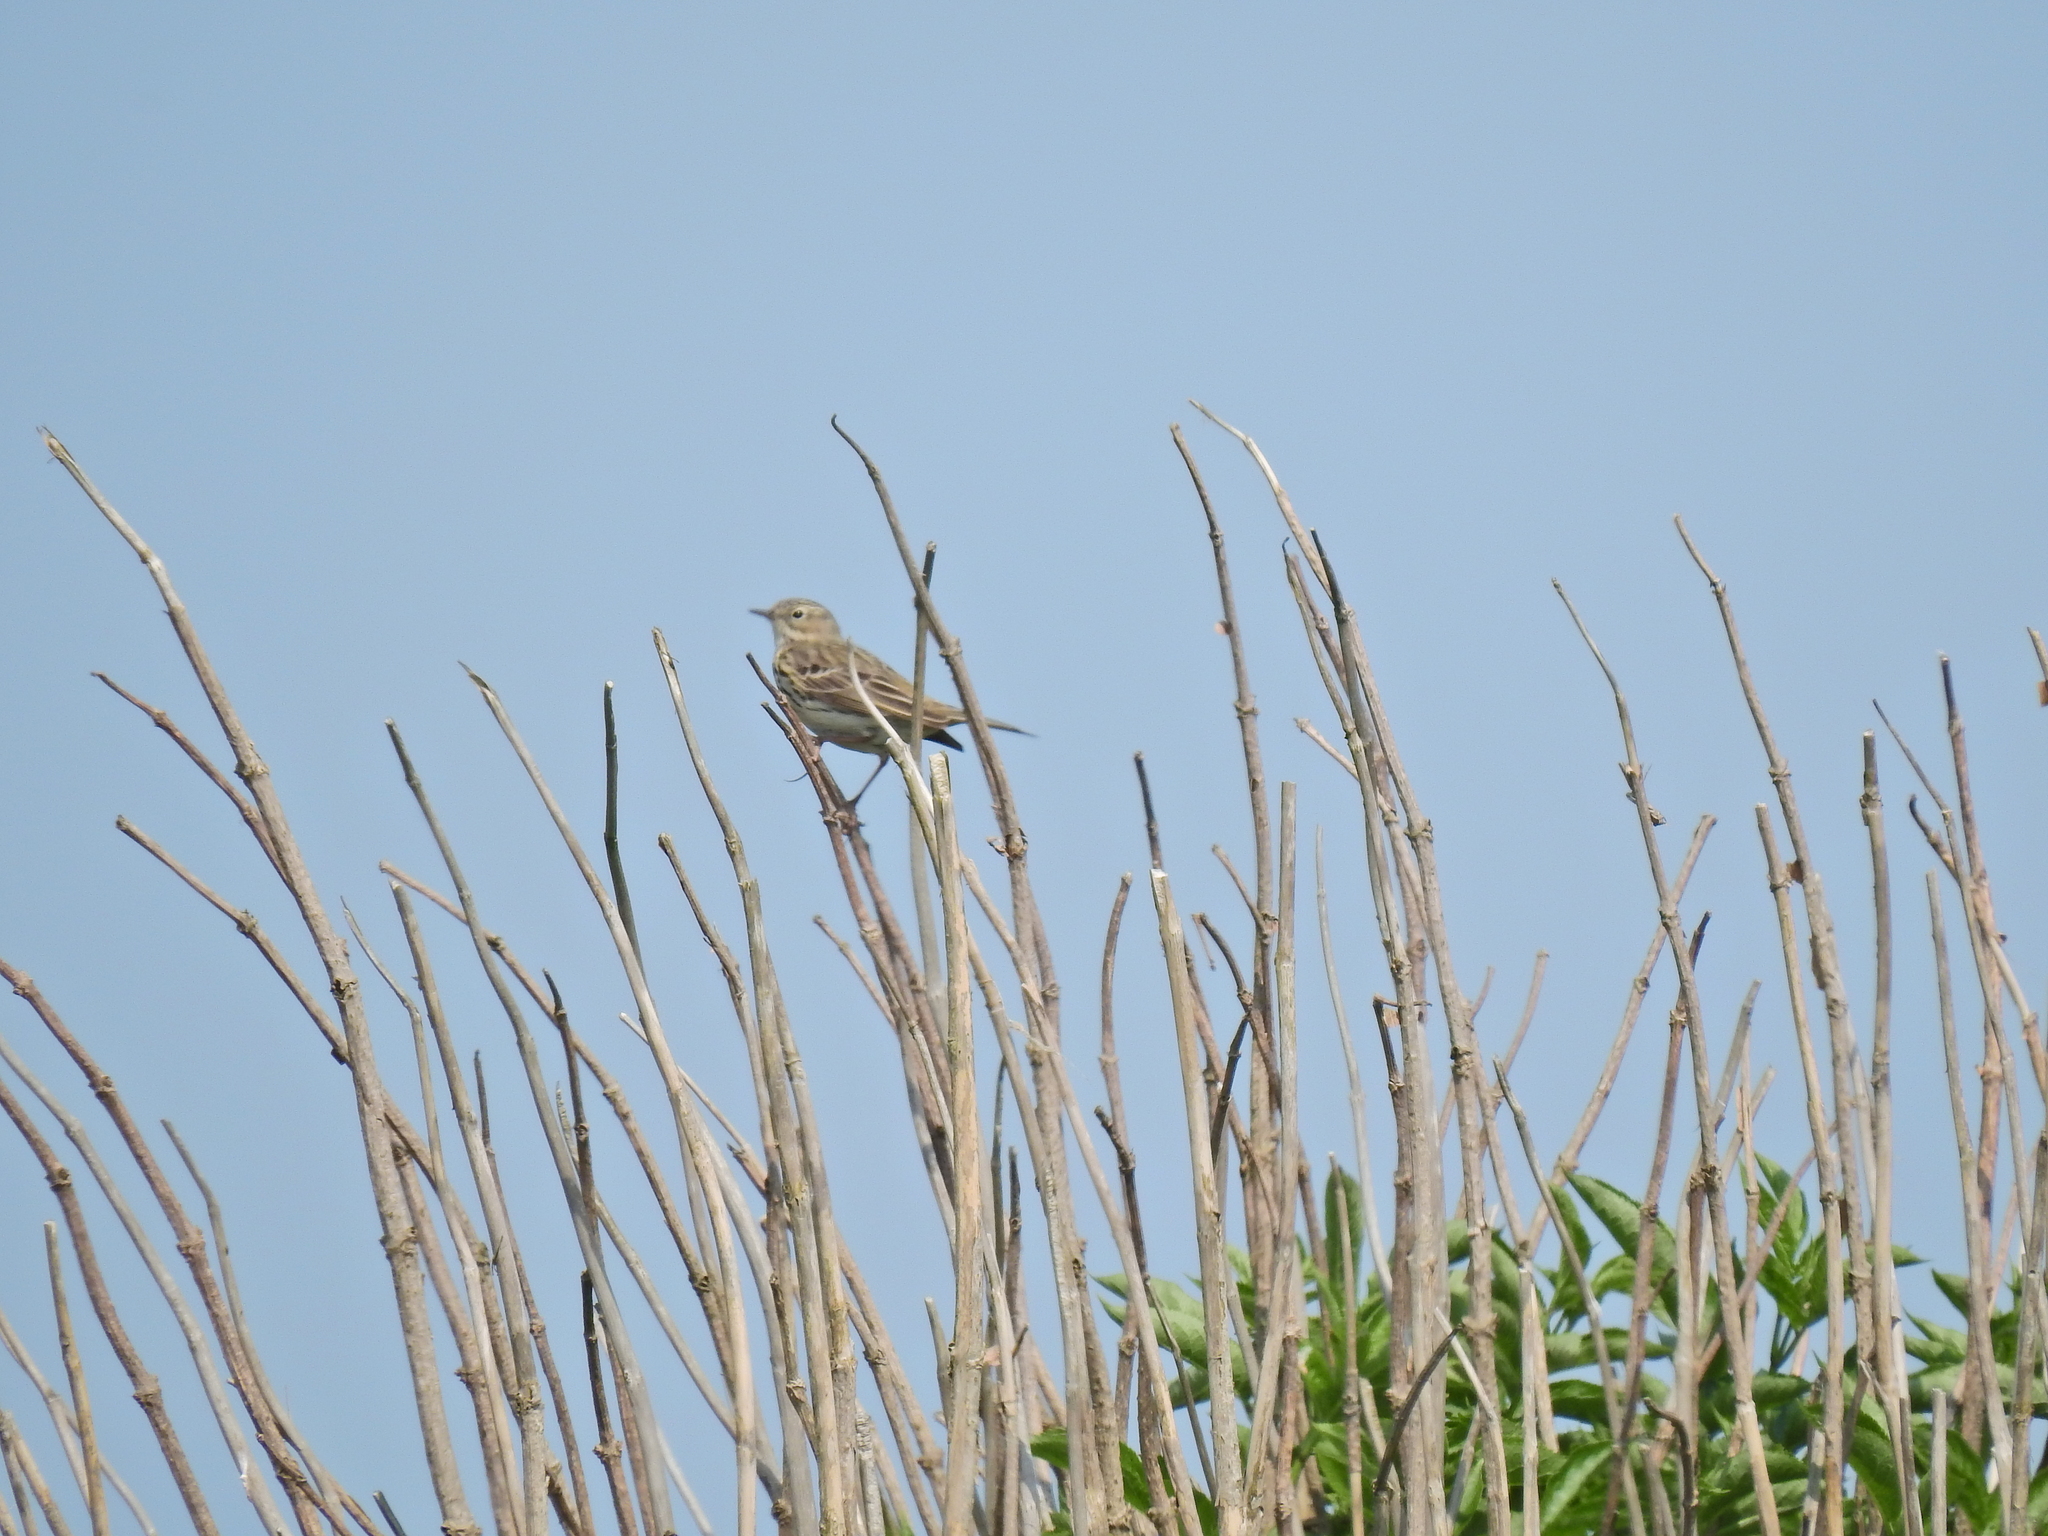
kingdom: Animalia
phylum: Chordata
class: Aves
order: Passeriformes
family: Motacillidae
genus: Anthus
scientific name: Anthus pratensis
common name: Meadow pipit
